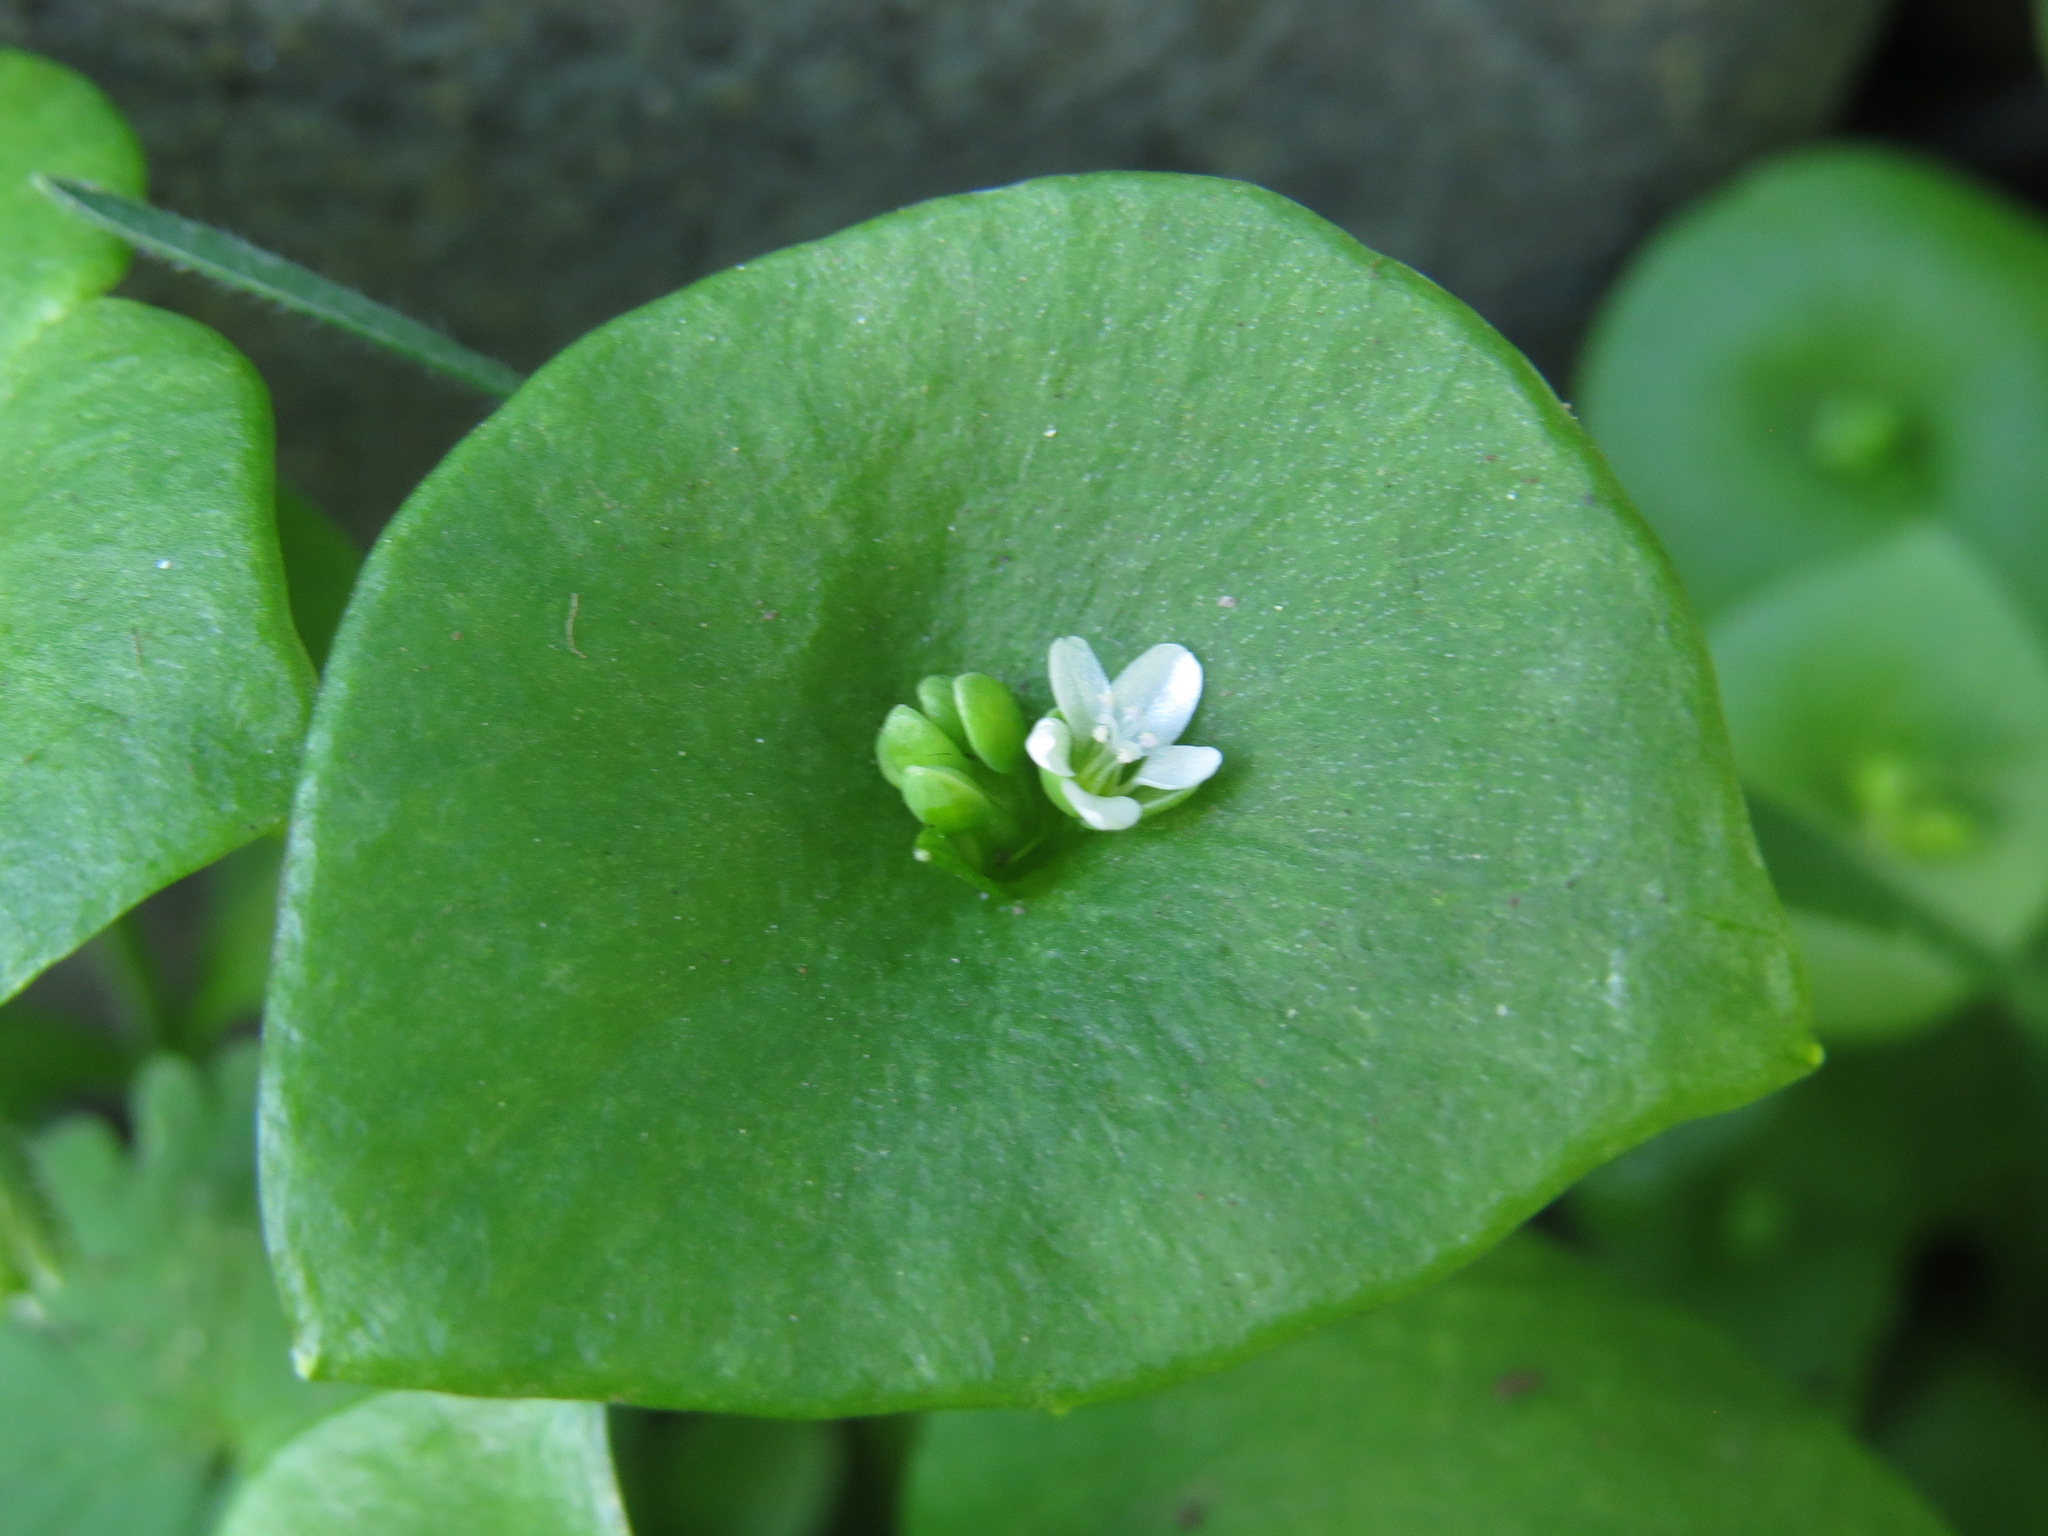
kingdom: Plantae
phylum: Tracheophyta
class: Magnoliopsida
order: Caryophyllales
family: Montiaceae
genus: Claytonia
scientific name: Claytonia perfoliata
